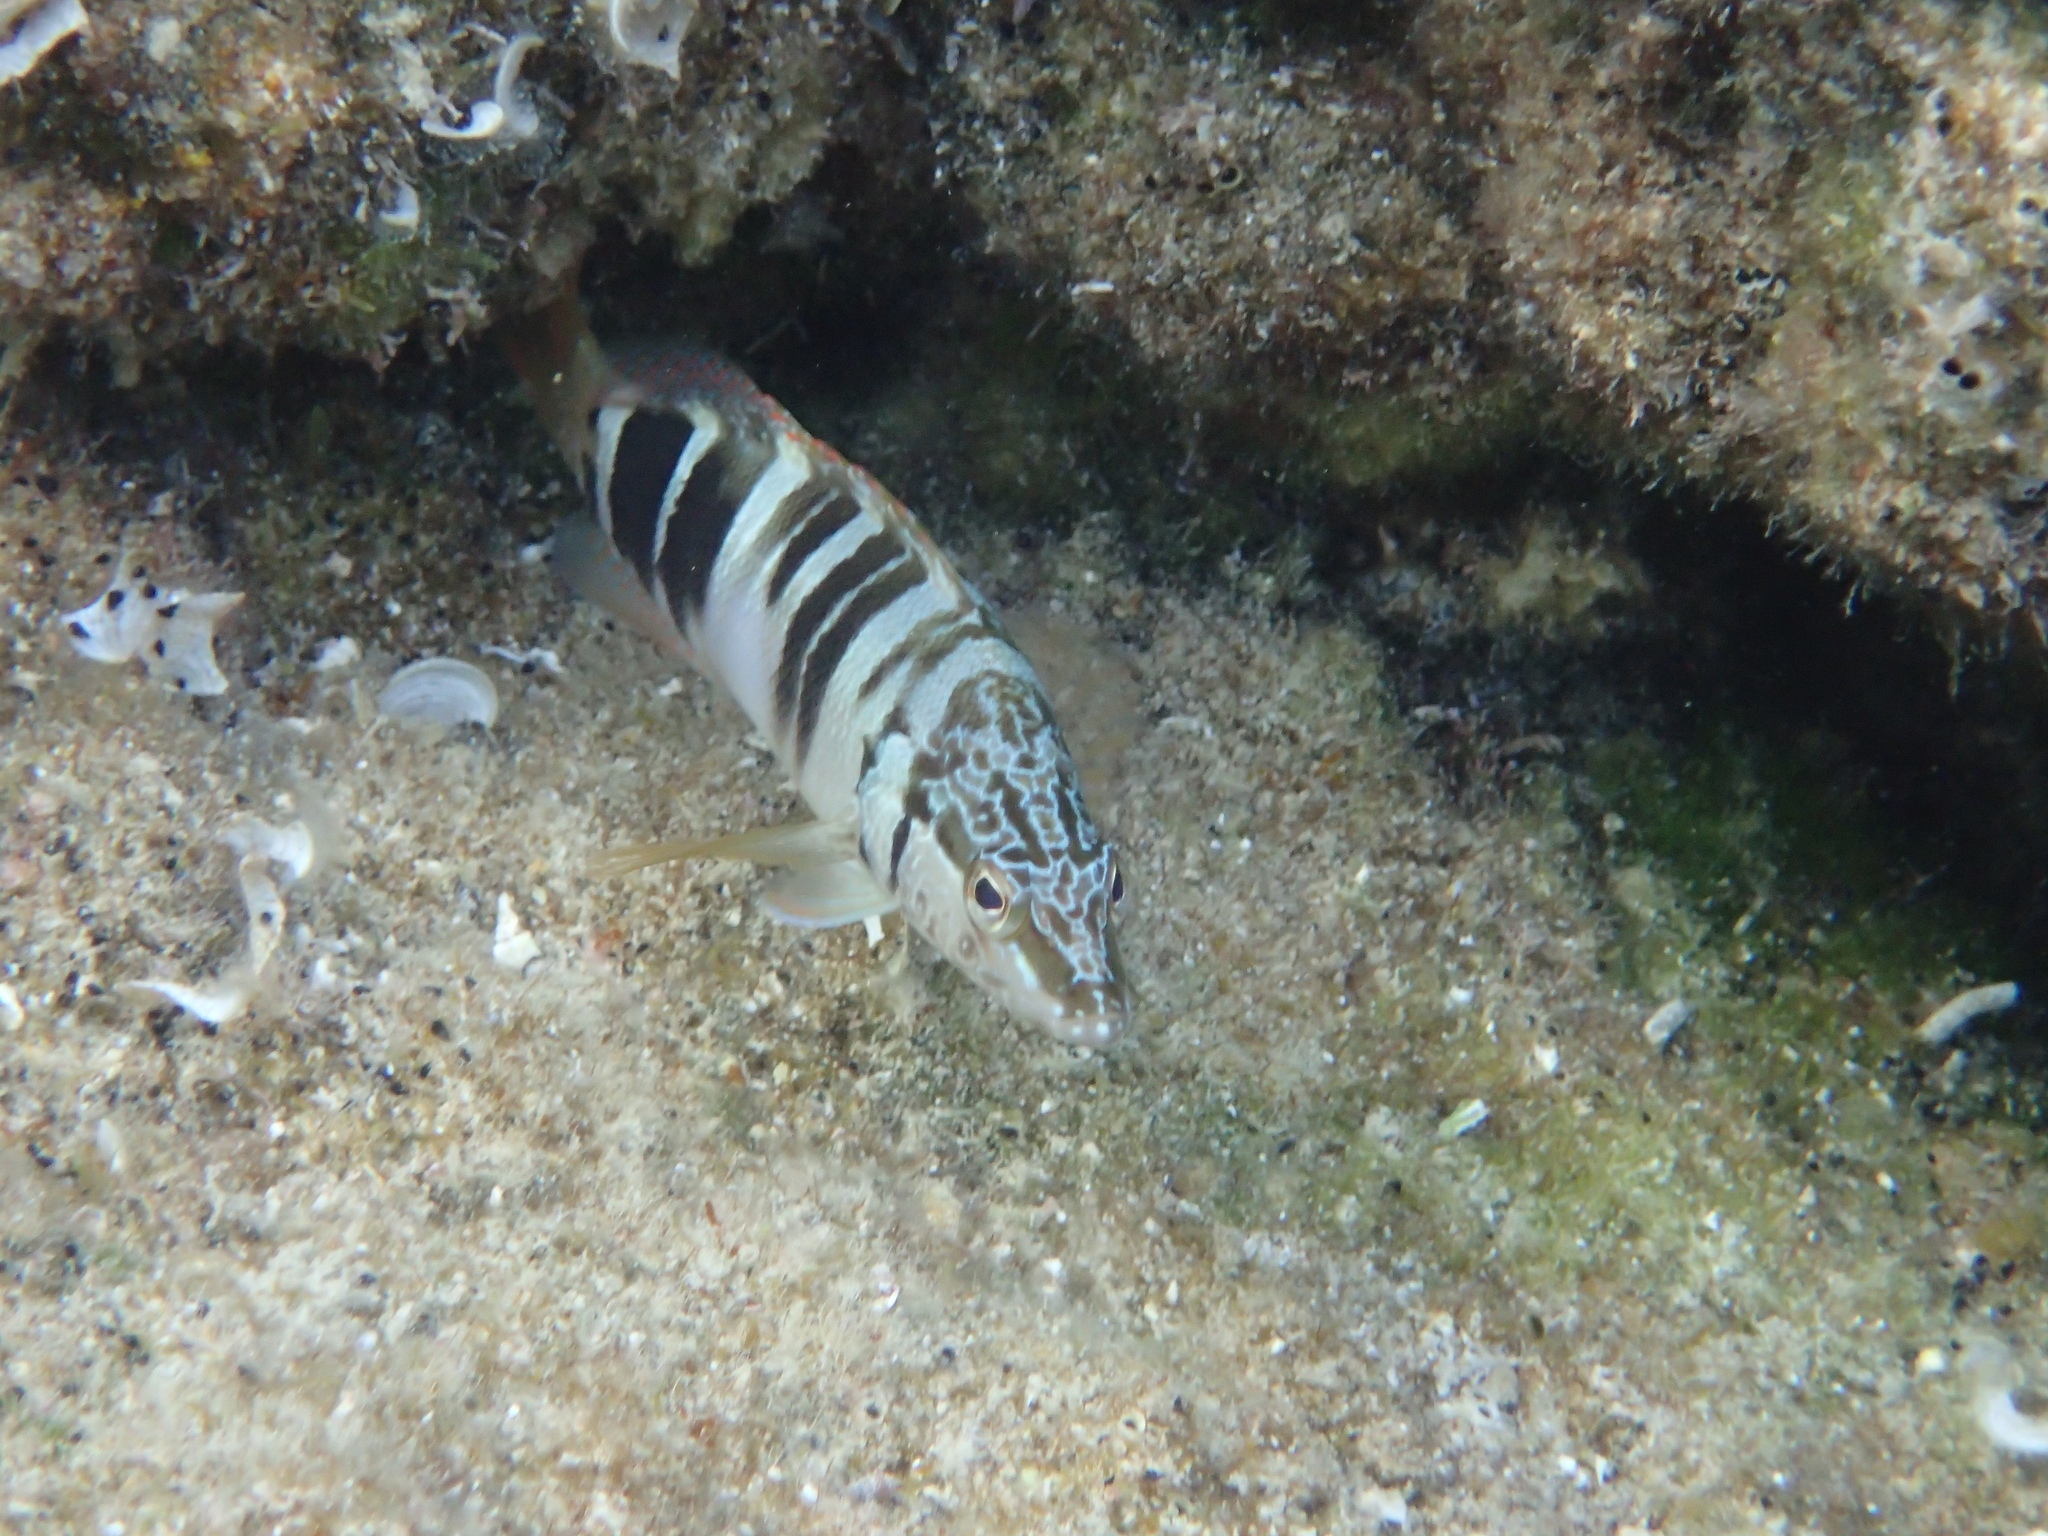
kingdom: Animalia
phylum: Chordata
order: Perciformes
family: Serranidae
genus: Serranus
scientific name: Serranus scriba
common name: Painted comber
